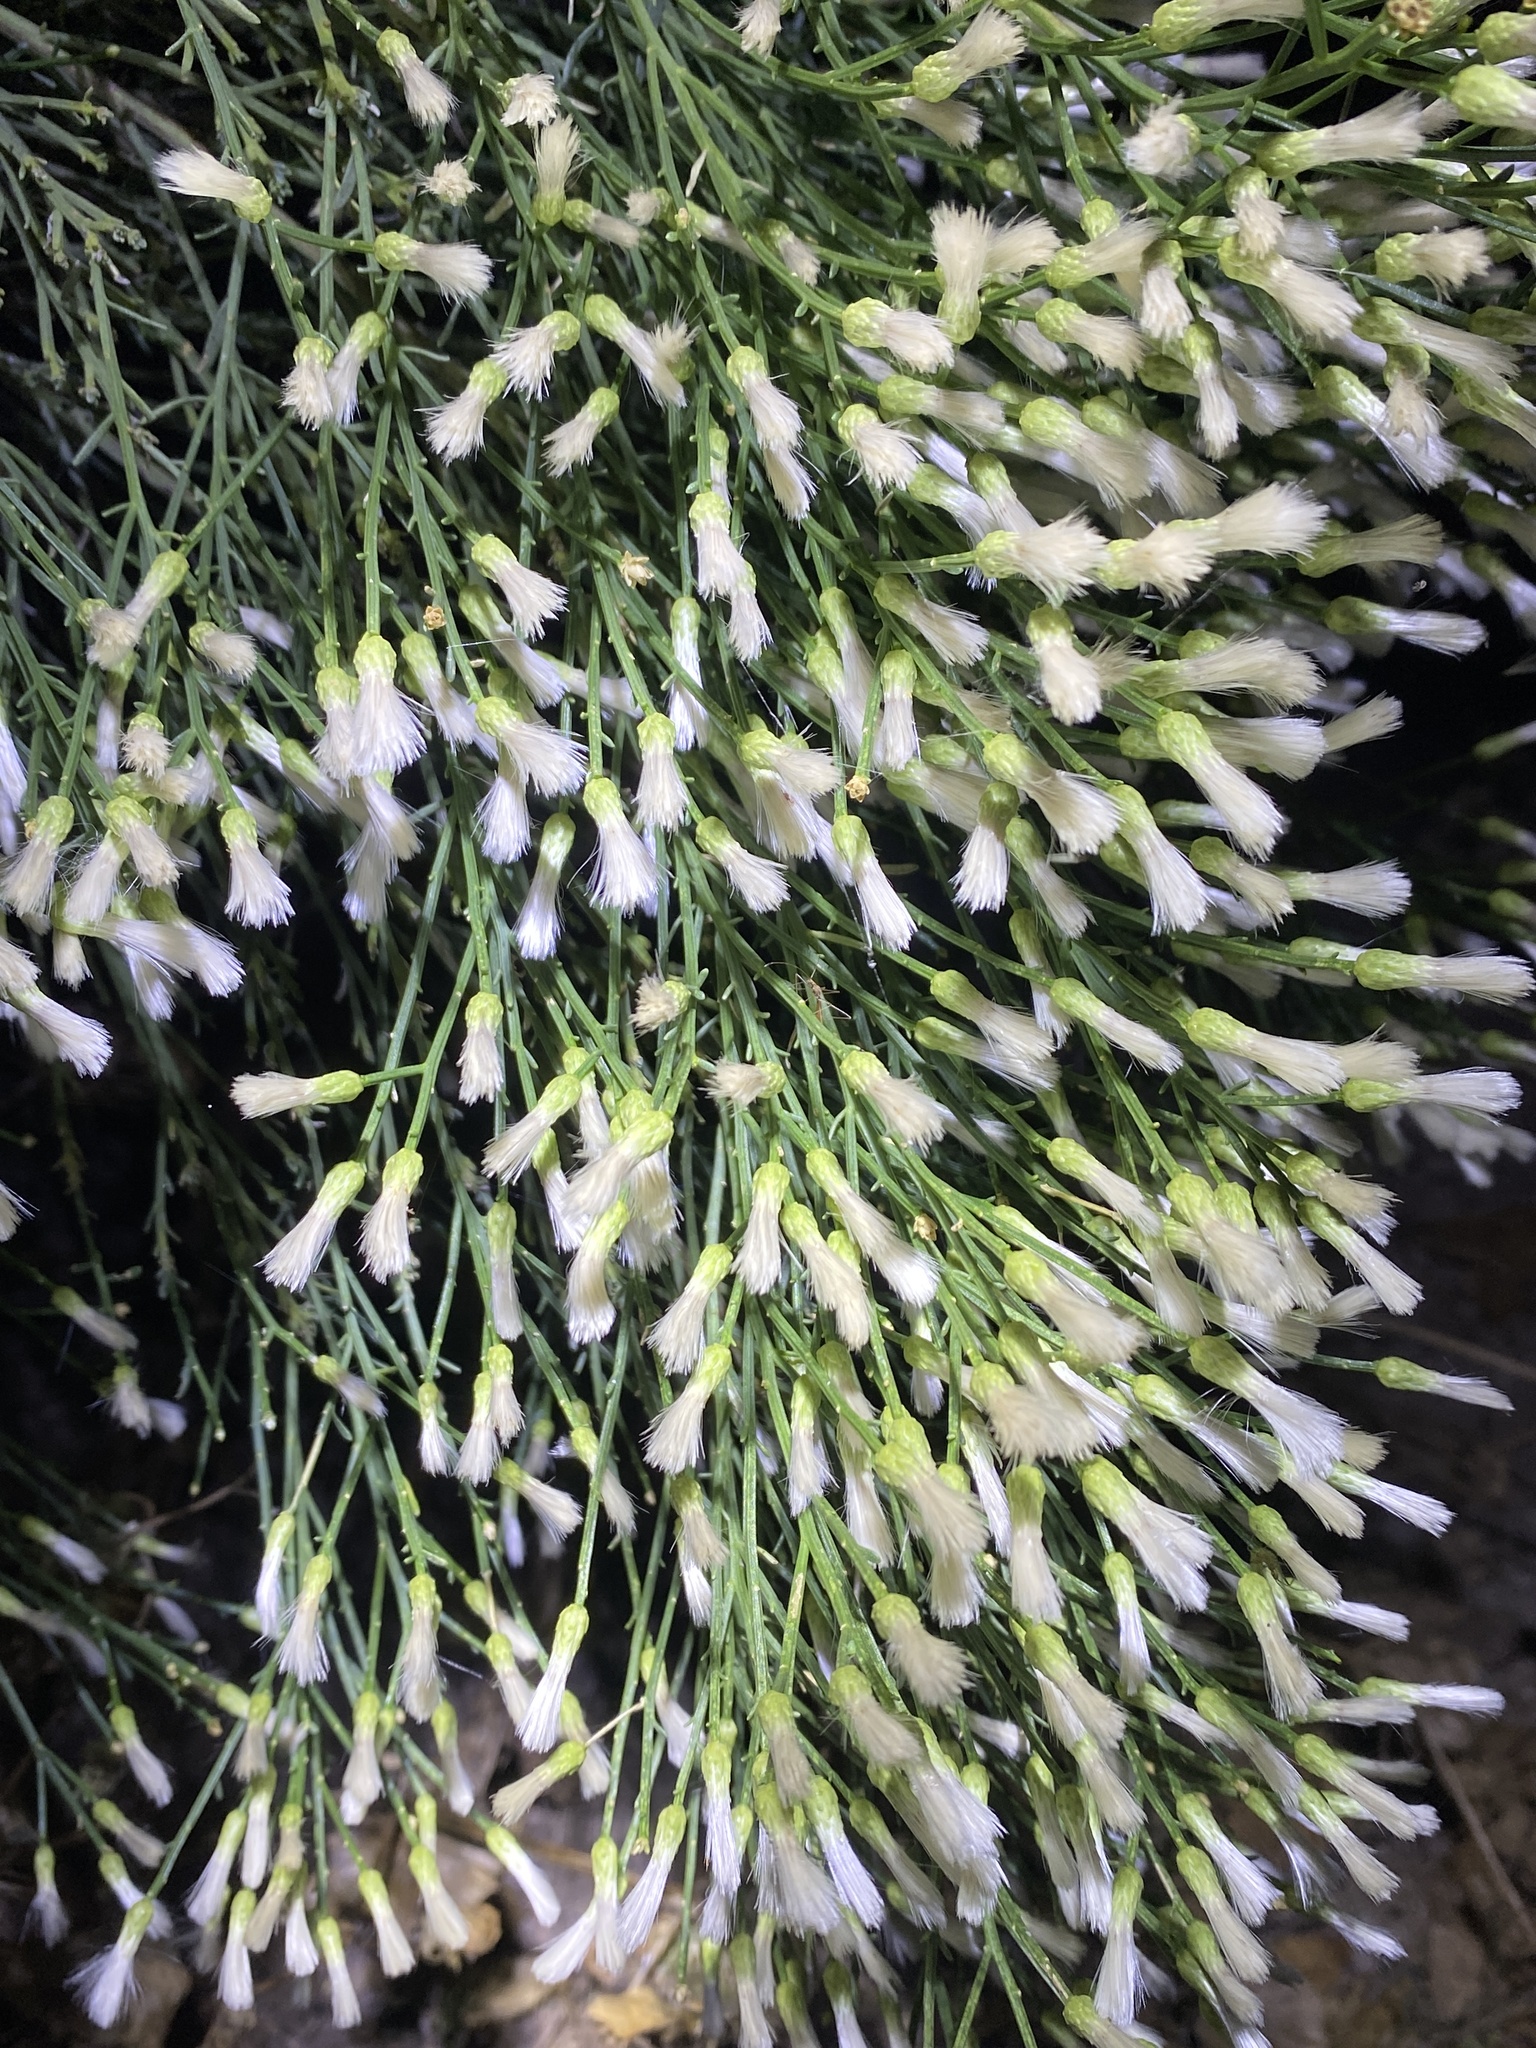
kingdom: Plantae
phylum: Tracheophyta
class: Magnoliopsida
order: Asterales
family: Asteraceae
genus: Baccharis
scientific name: Baccharis sarothroides
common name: Desert-broom
